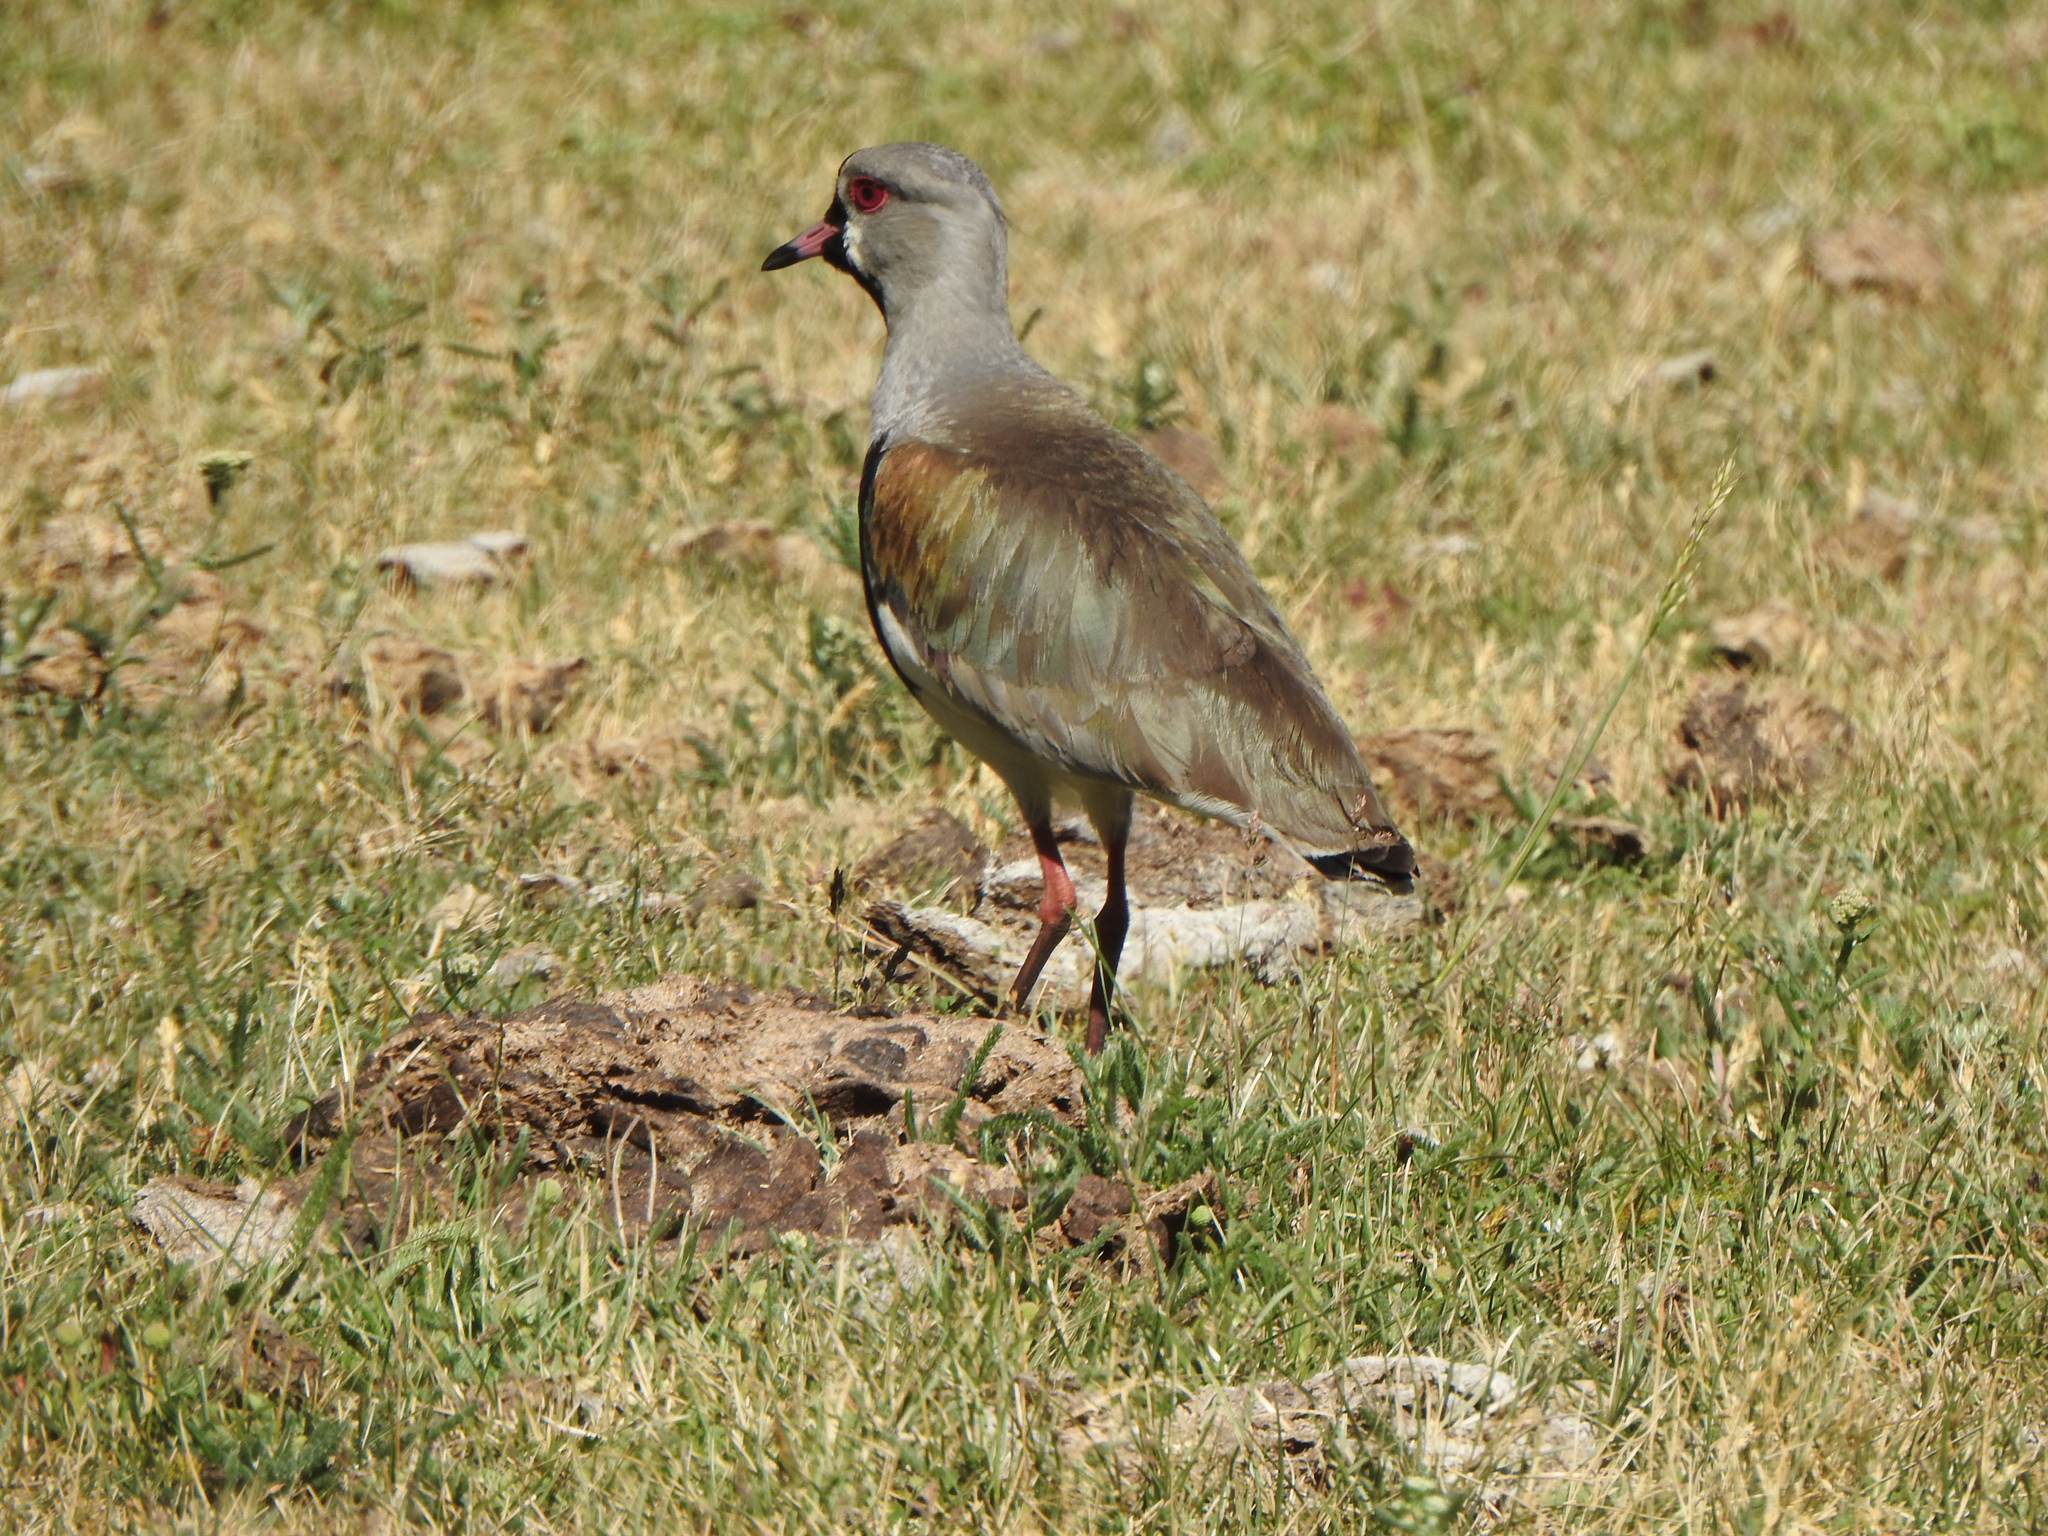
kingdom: Animalia
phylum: Chordata
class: Aves
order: Charadriiformes
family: Charadriidae
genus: Vanellus
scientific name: Vanellus chilensis
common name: Southern lapwing
